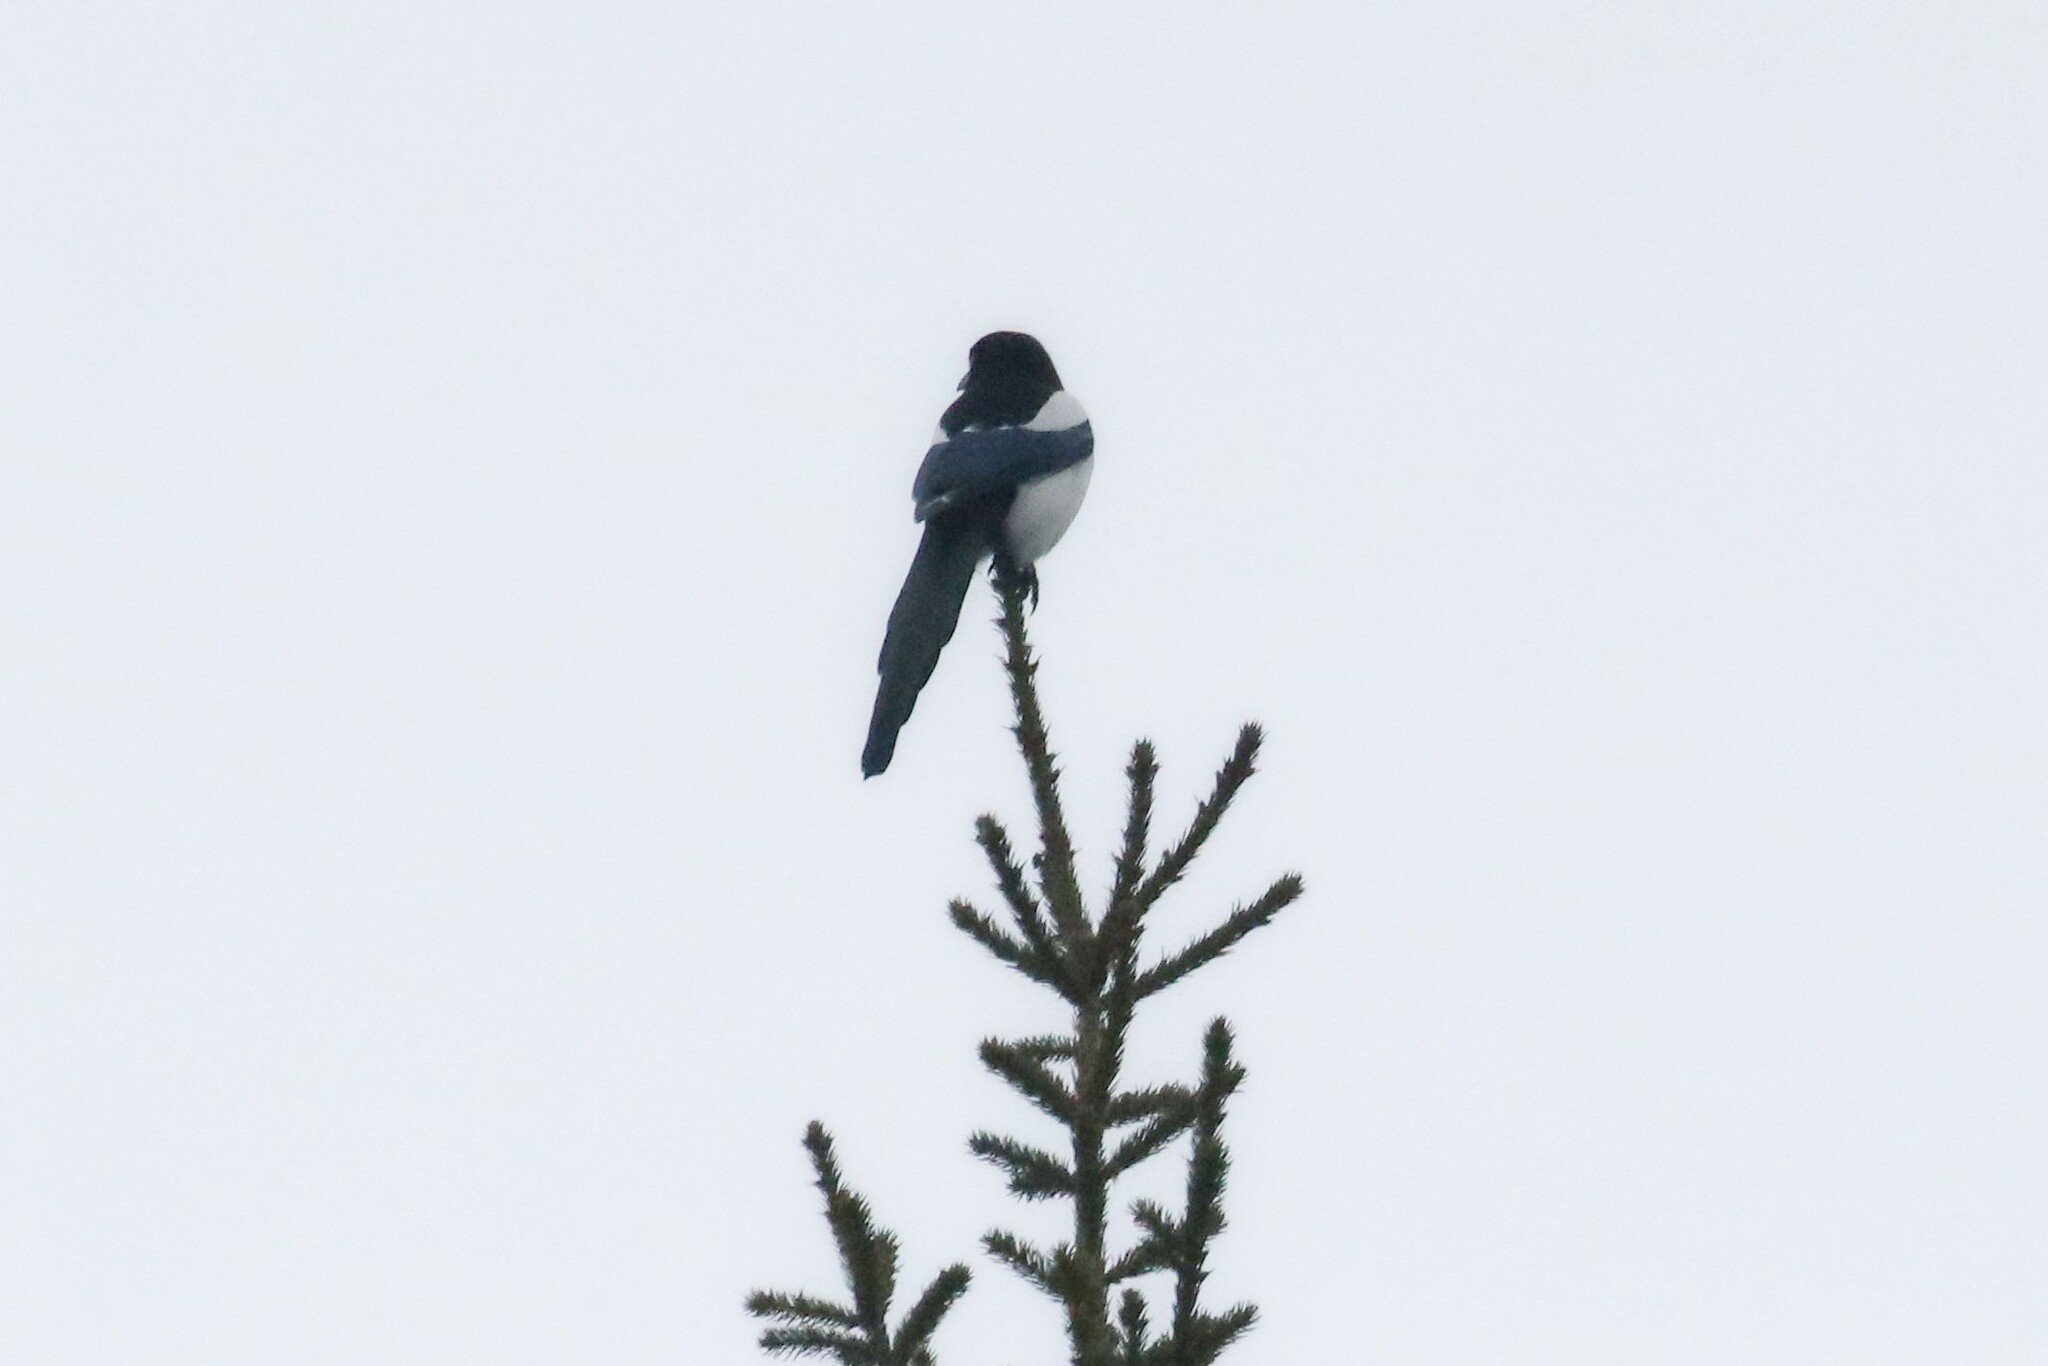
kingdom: Animalia
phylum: Chordata
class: Aves
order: Passeriformes
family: Corvidae
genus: Pica
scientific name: Pica pica
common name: Eurasian magpie
